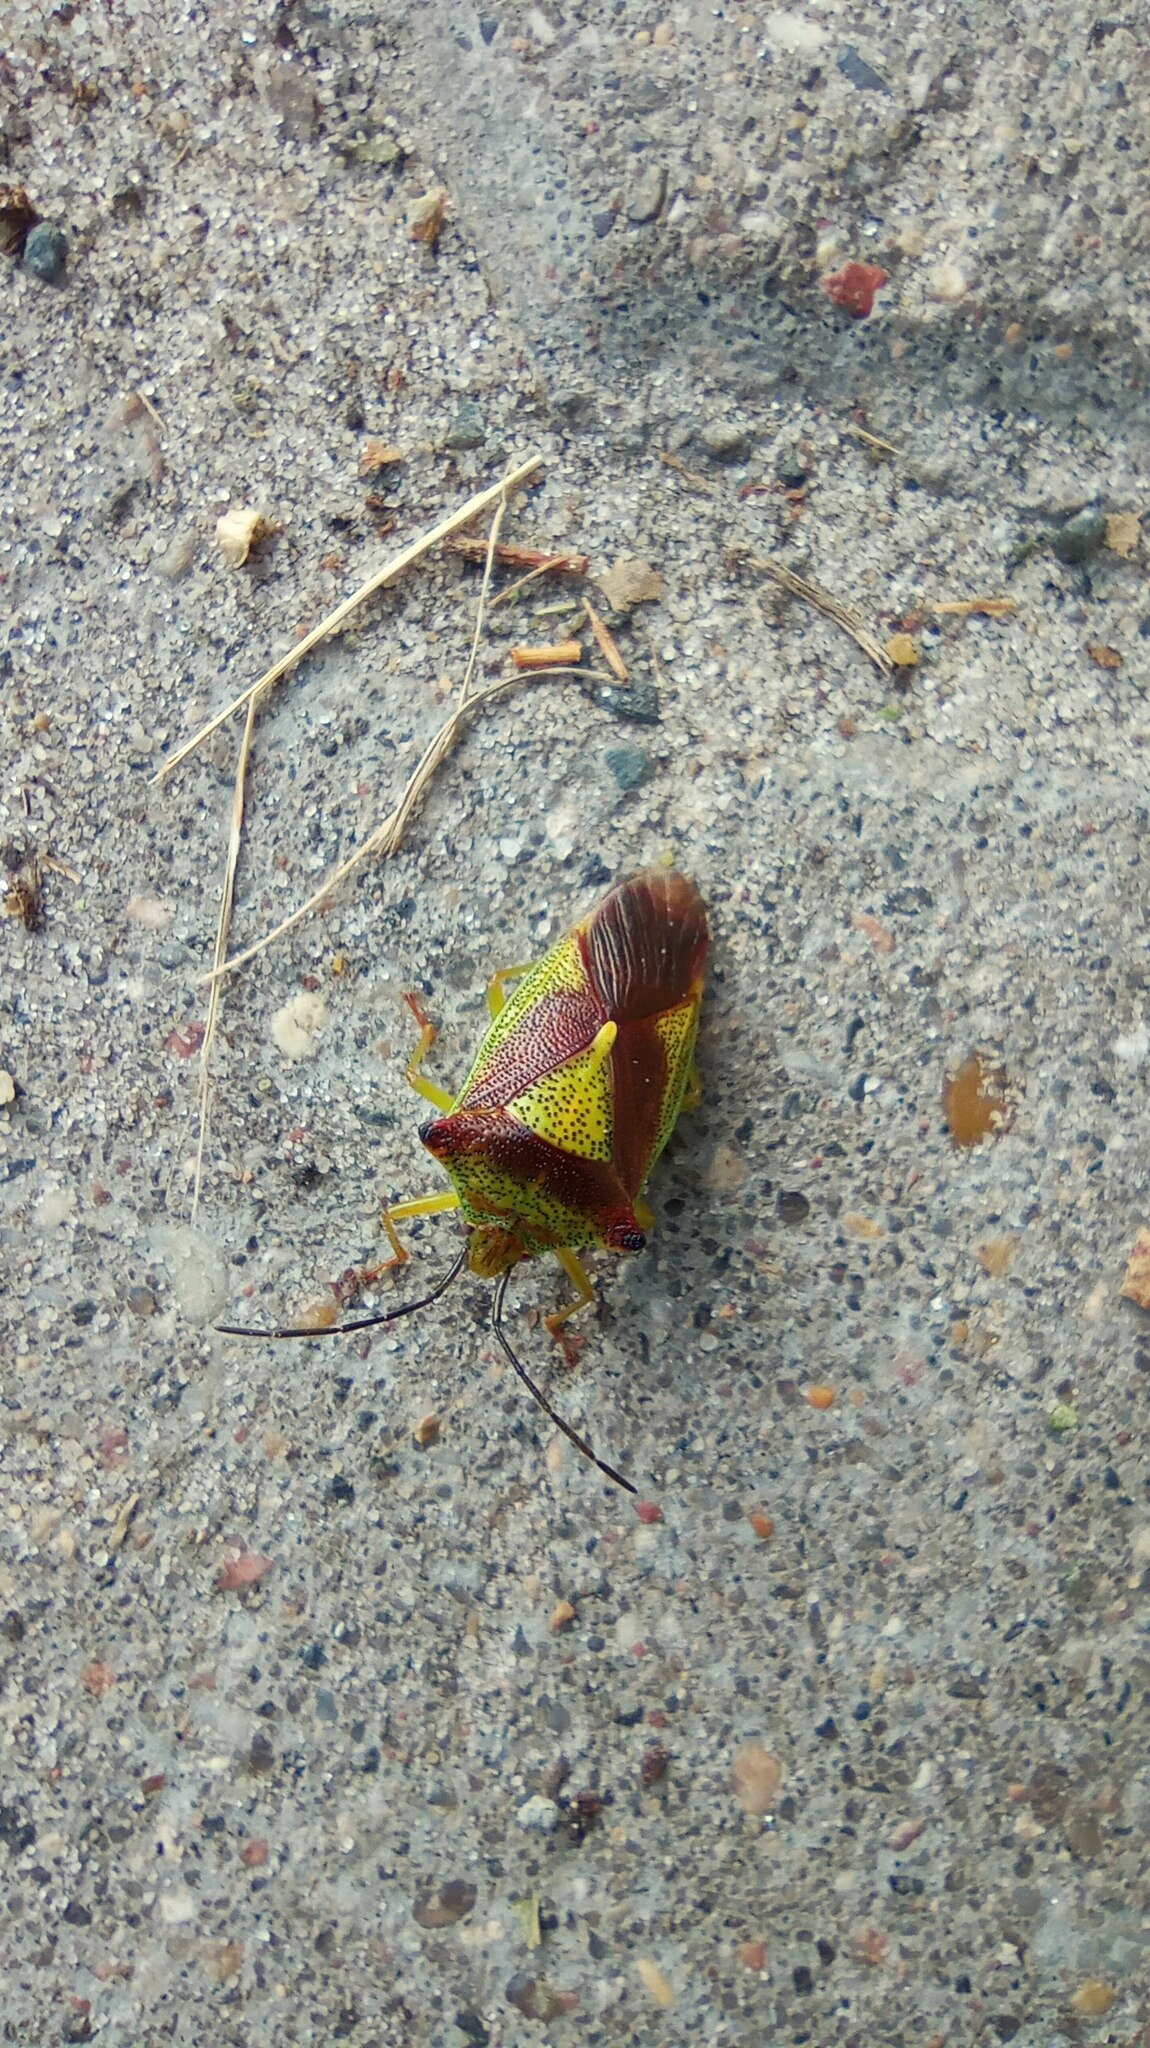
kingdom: Animalia
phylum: Arthropoda
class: Insecta
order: Hemiptera
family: Acanthosomatidae
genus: Acanthosoma
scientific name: Acanthosoma haemorrhoidale
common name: Hawthorn shieldbug
